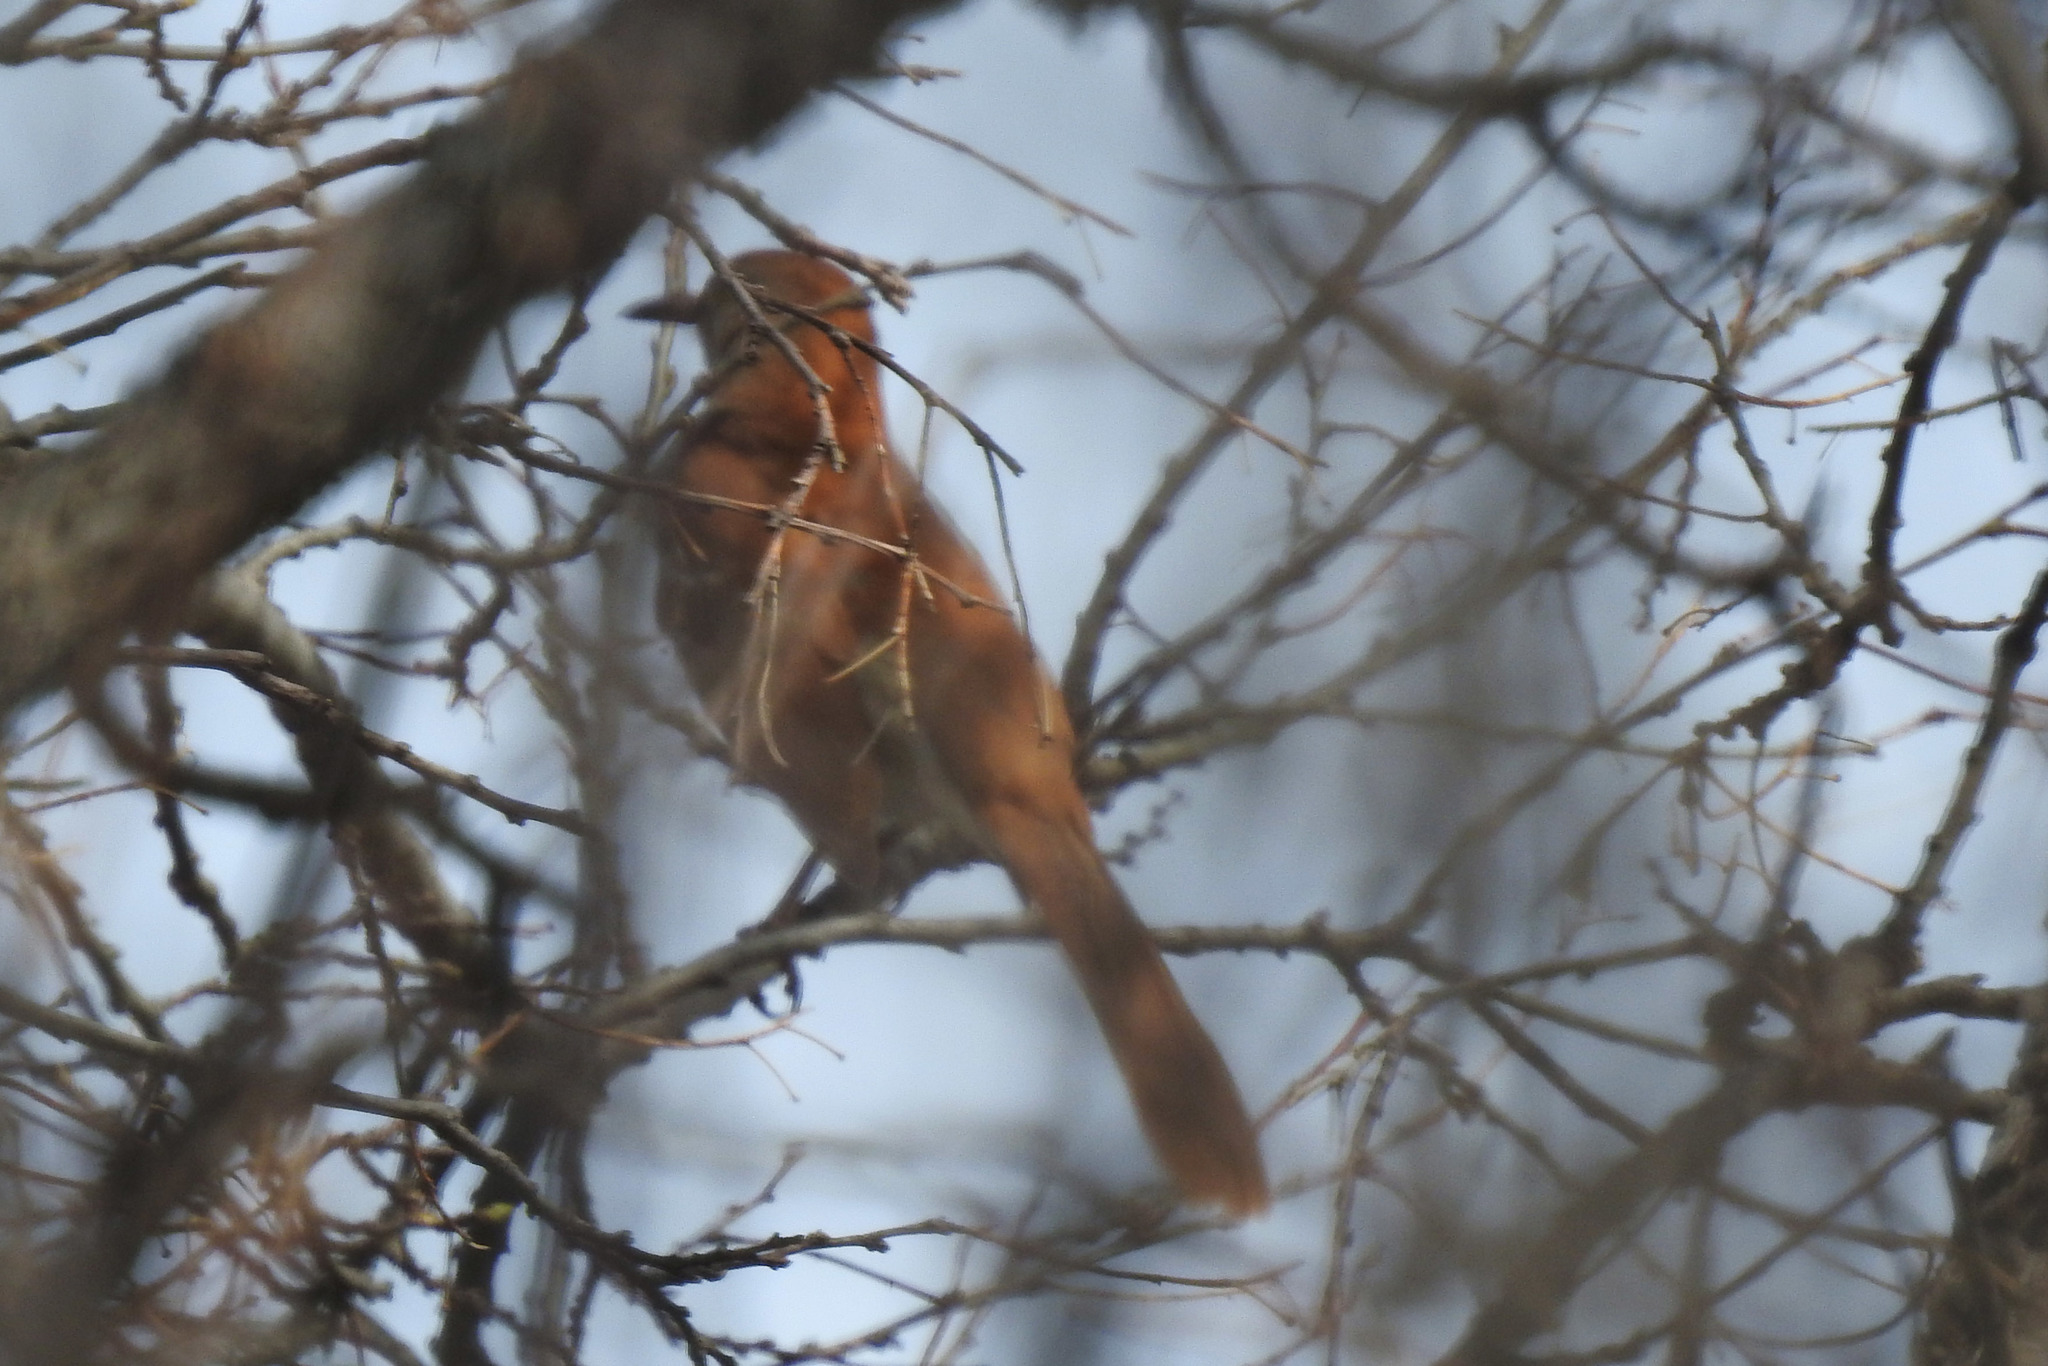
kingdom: Animalia
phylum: Chordata
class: Aves
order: Passeriformes
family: Mimidae
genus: Toxostoma
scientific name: Toxostoma rufum
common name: Brown thrasher
